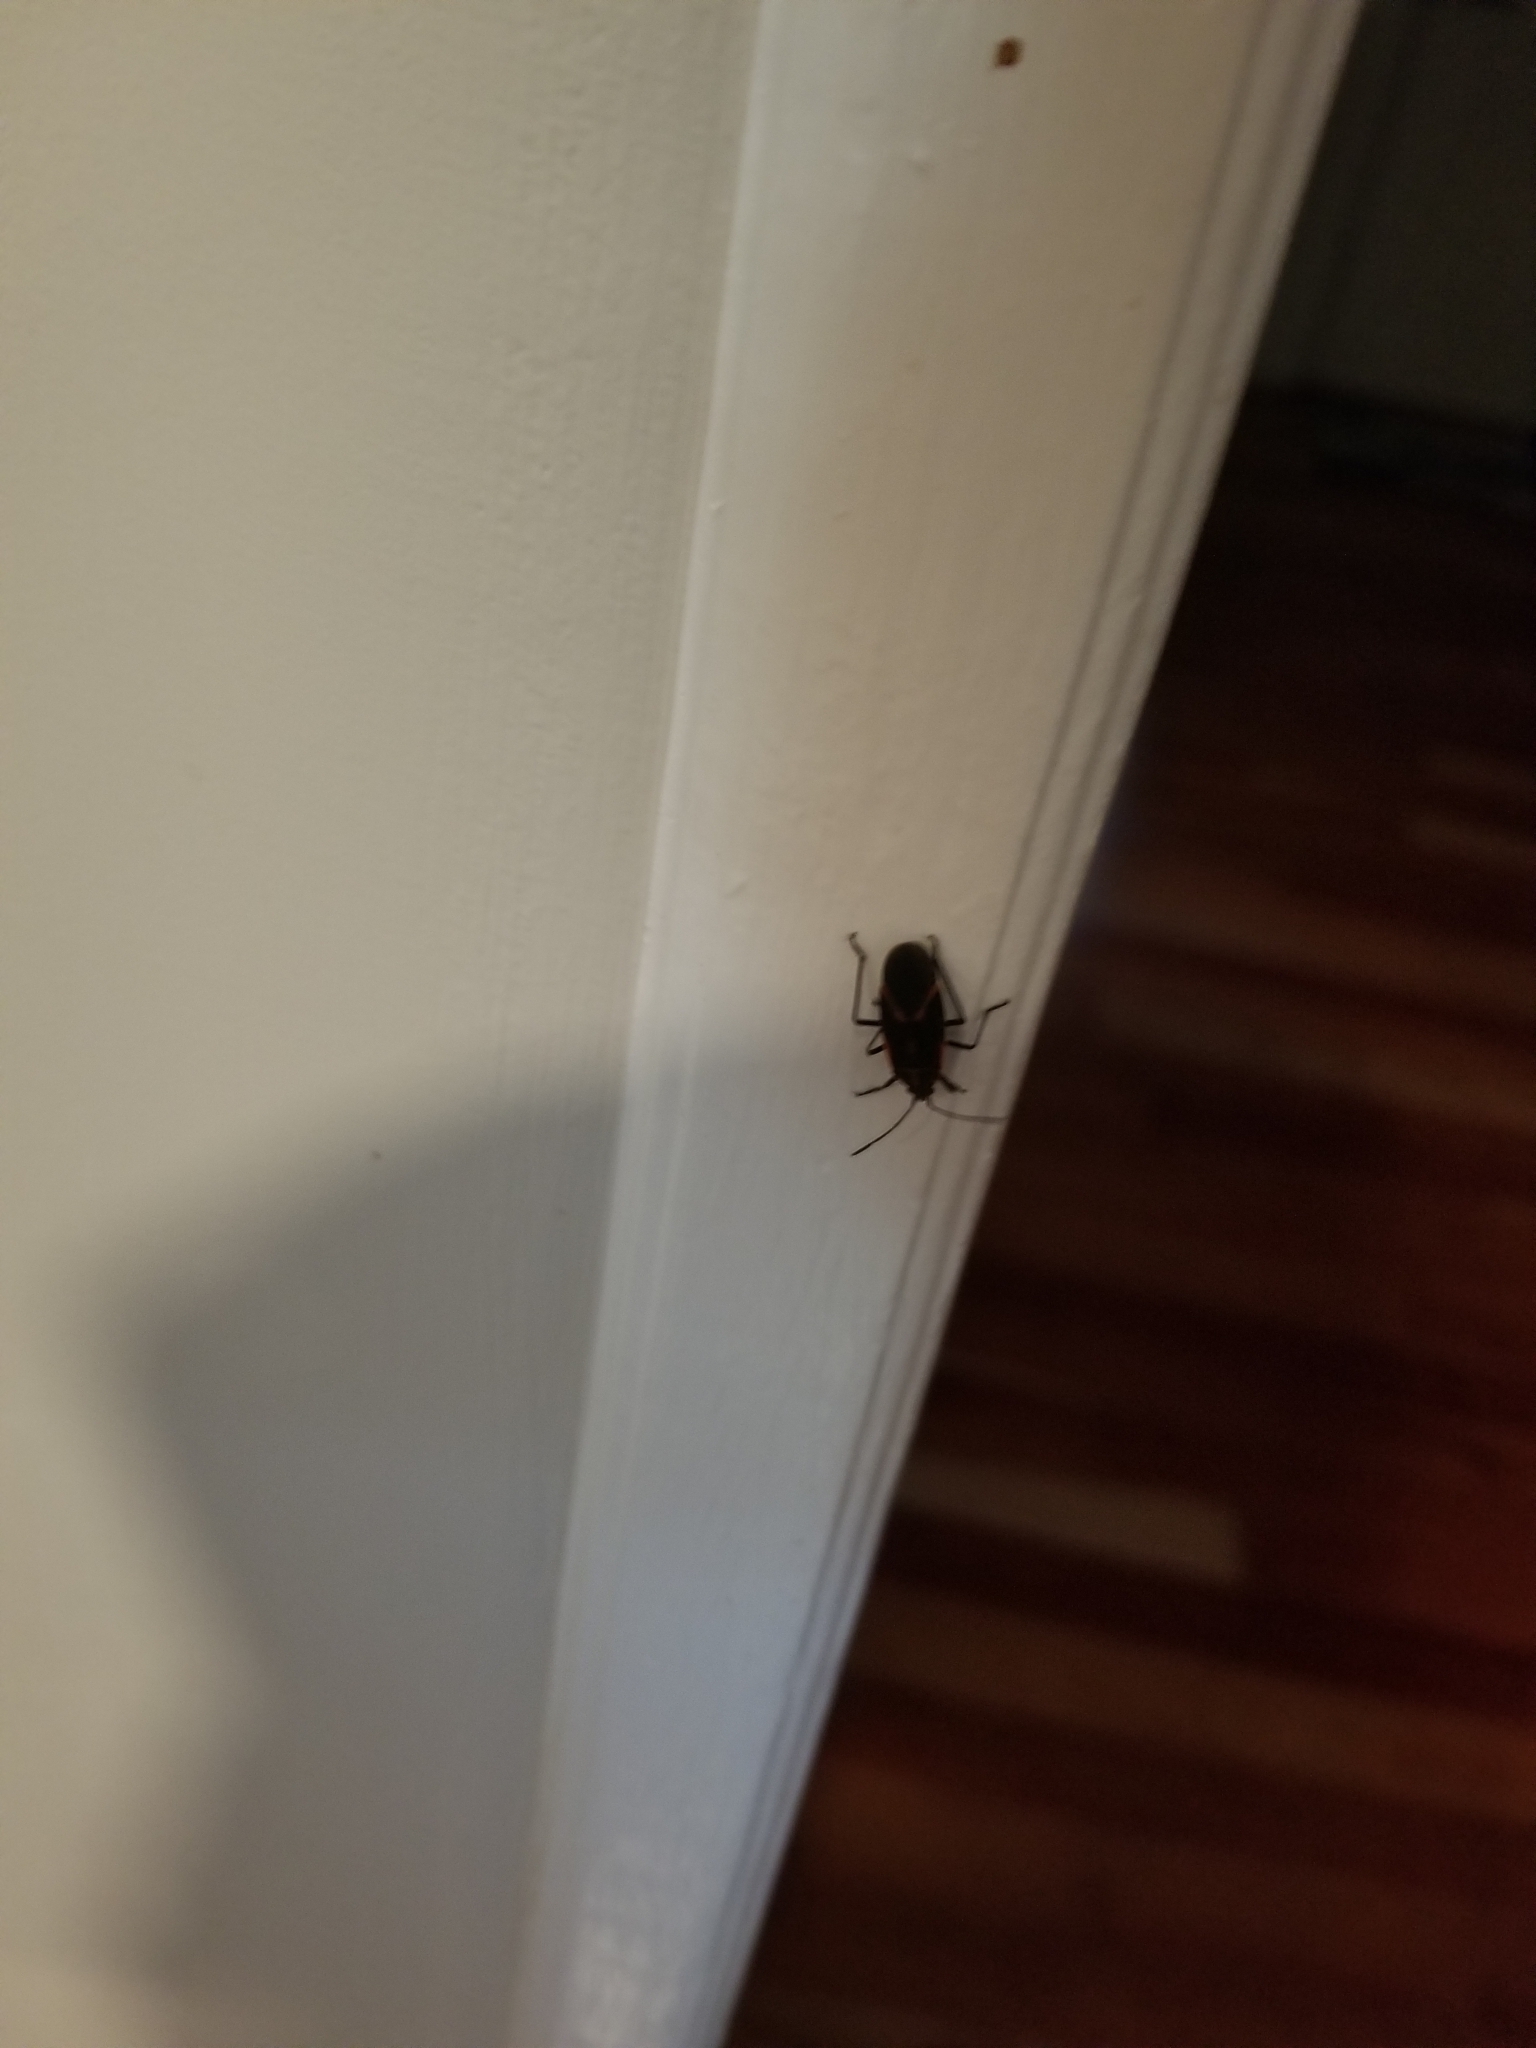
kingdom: Animalia
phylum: Arthropoda
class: Insecta
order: Hemiptera
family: Rhopalidae
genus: Boisea
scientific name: Boisea trivittata
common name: Boxelder bug
